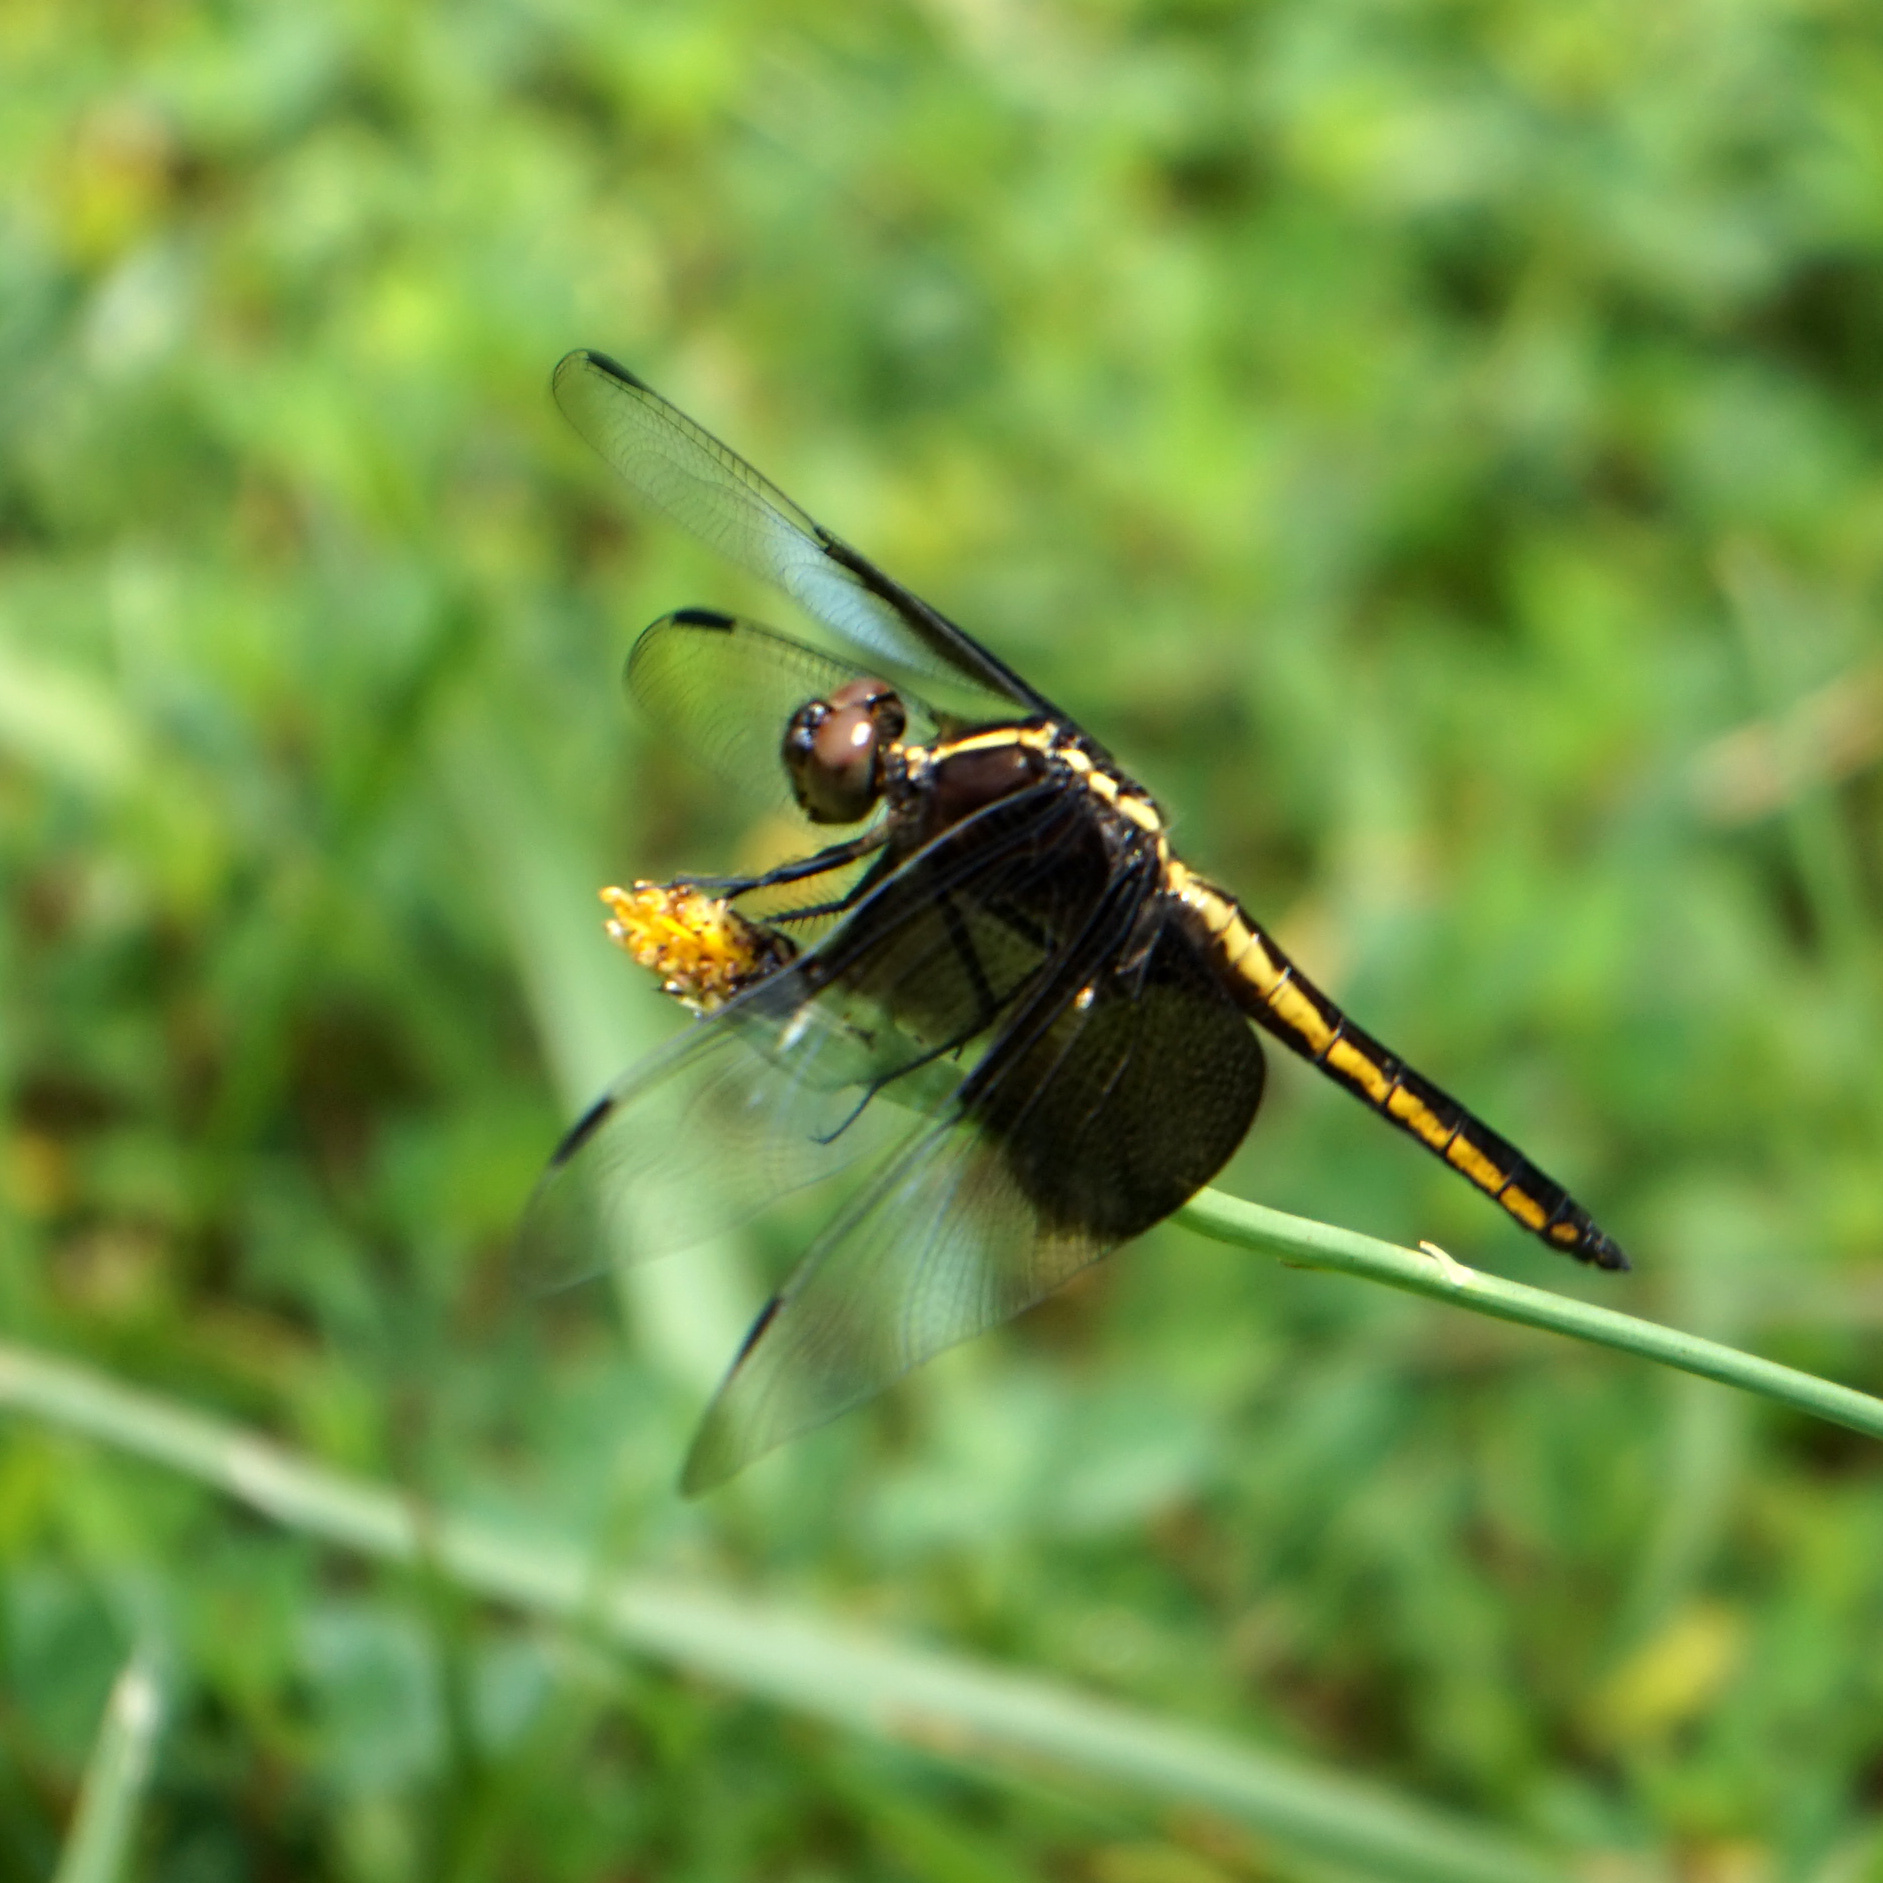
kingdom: Animalia
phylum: Arthropoda
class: Insecta
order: Odonata
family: Libellulidae
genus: Libellula
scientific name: Libellula luctuosa
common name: Widow skimmer
